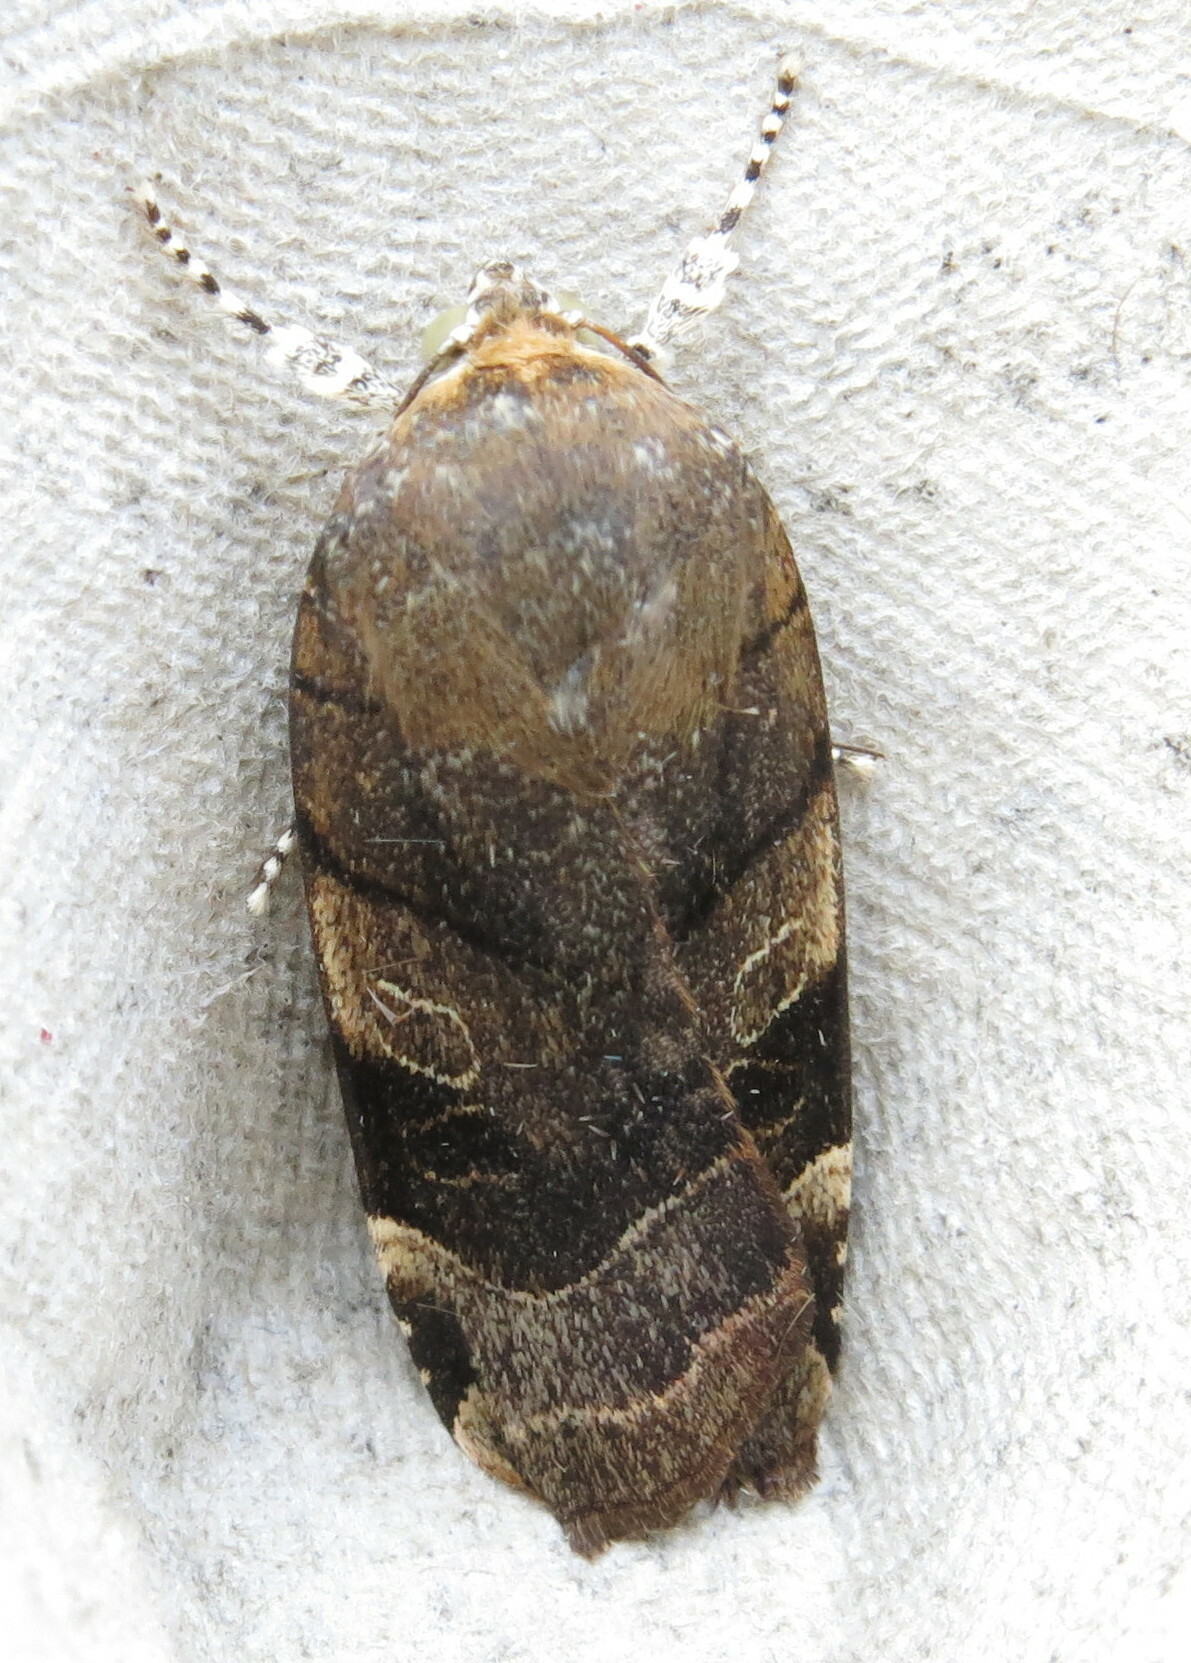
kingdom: Animalia
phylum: Arthropoda
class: Insecta
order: Lepidoptera
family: Noctuidae
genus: Noctua
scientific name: Noctua fimbriata
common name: Broad-bordered yellow underwing
